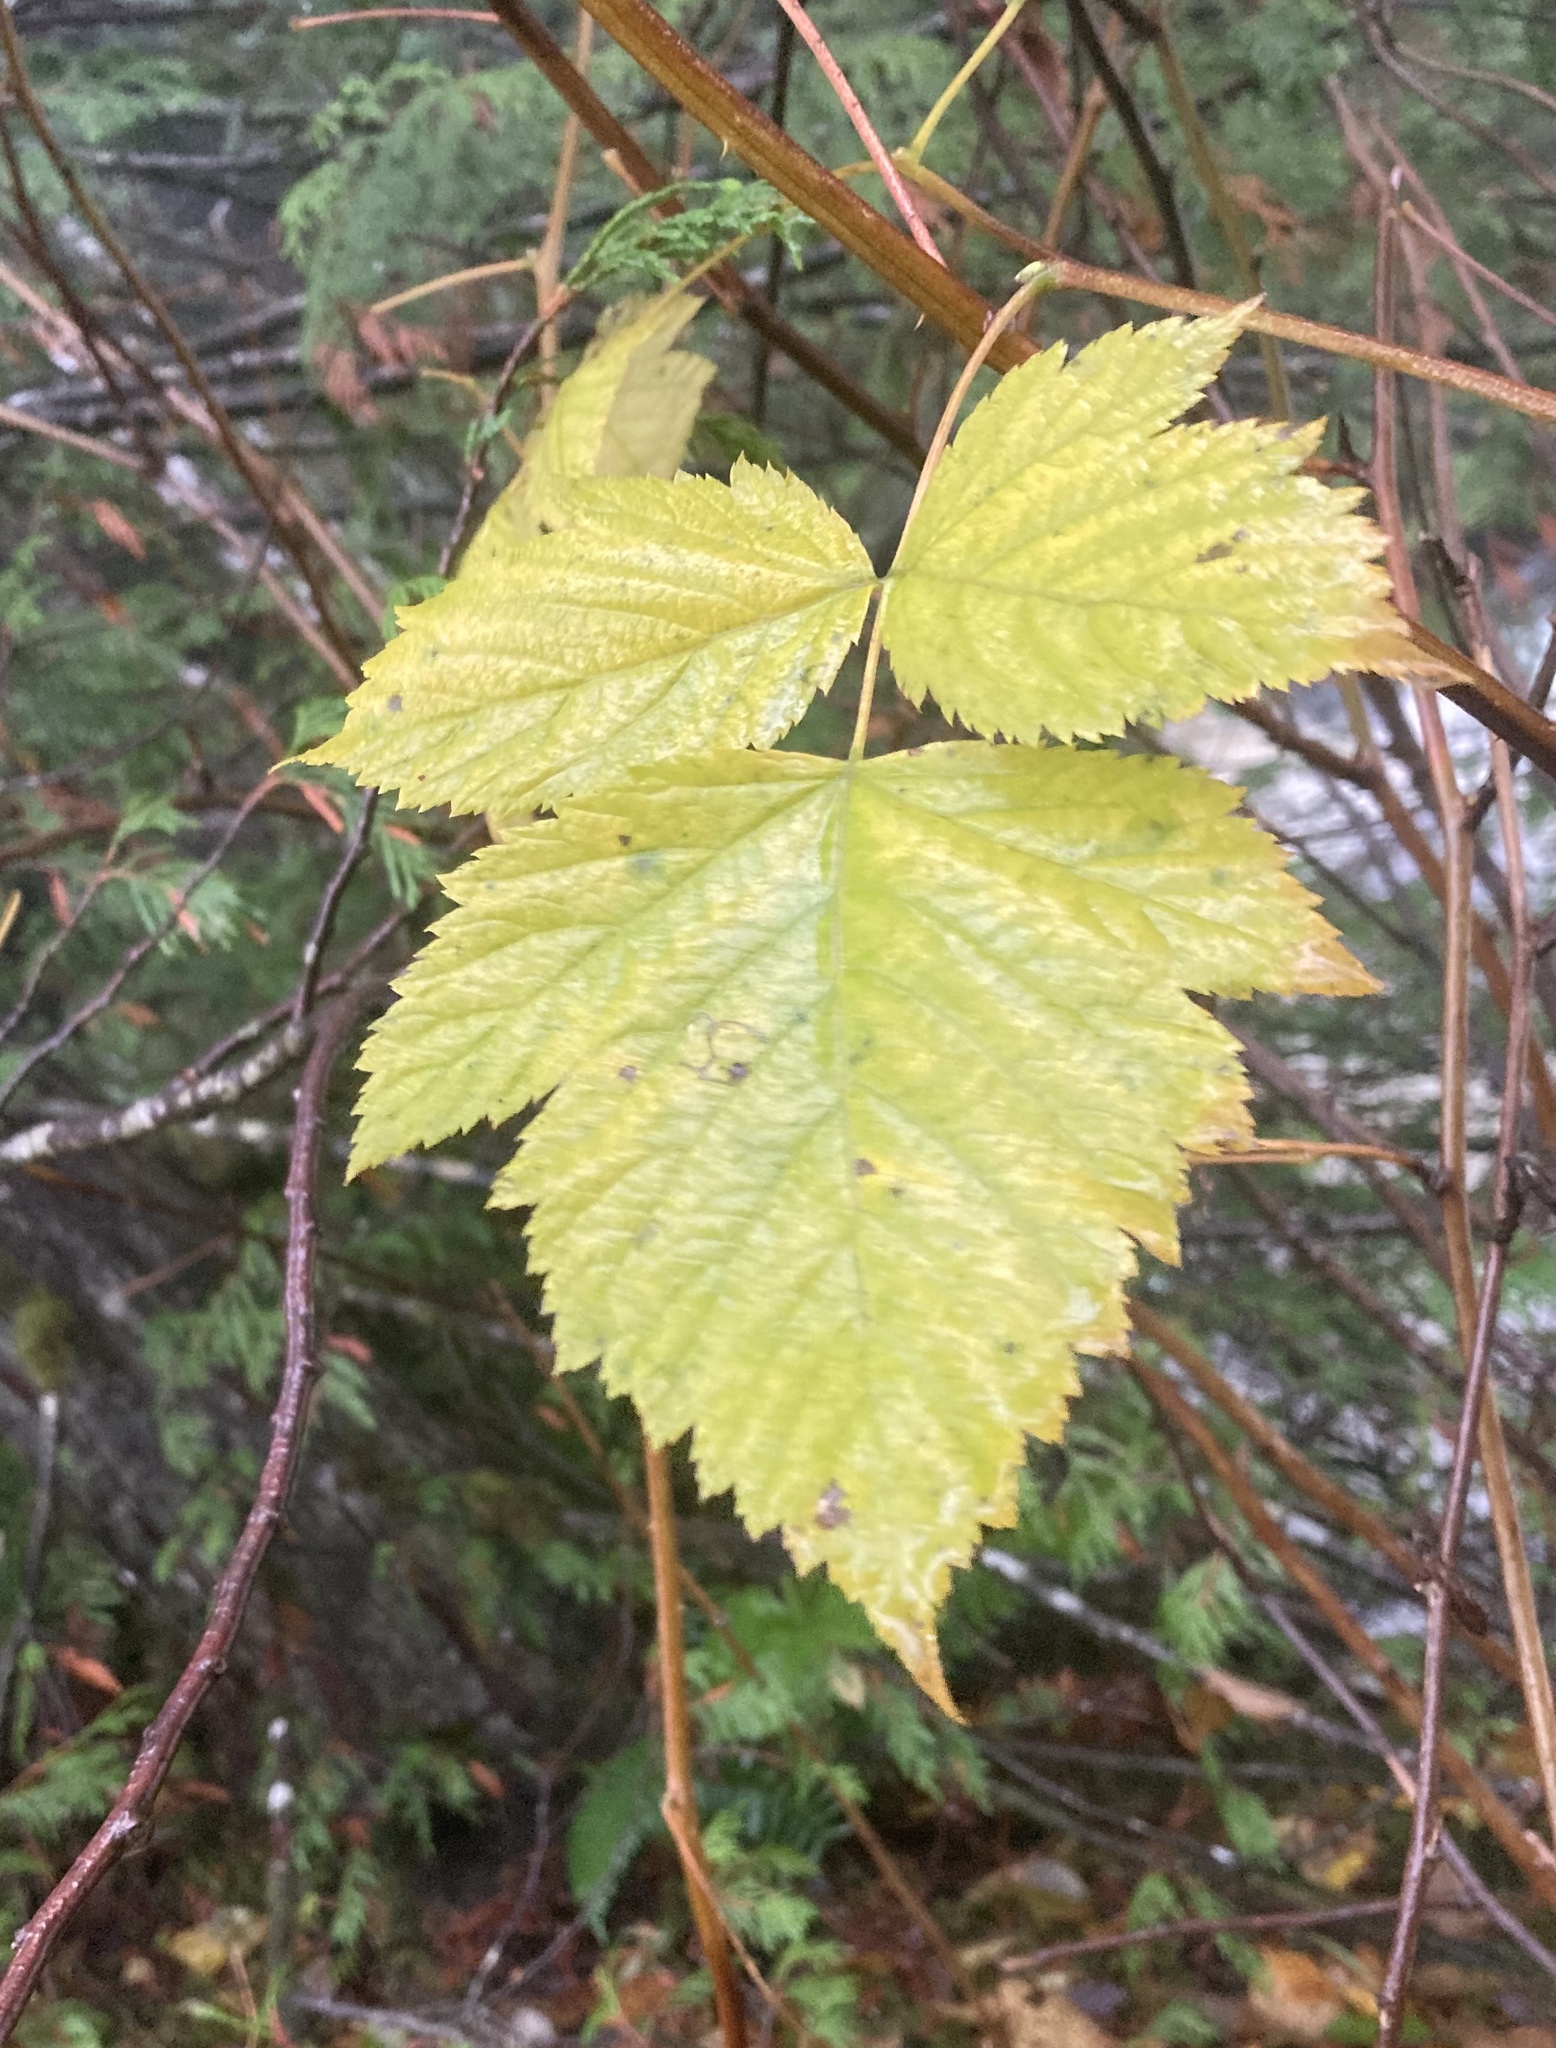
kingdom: Plantae
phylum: Tracheophyta
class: Magnoliopsida
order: Rosales
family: Rosaceae
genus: Rubus
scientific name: Rubus spectabilis
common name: Salmonberry
